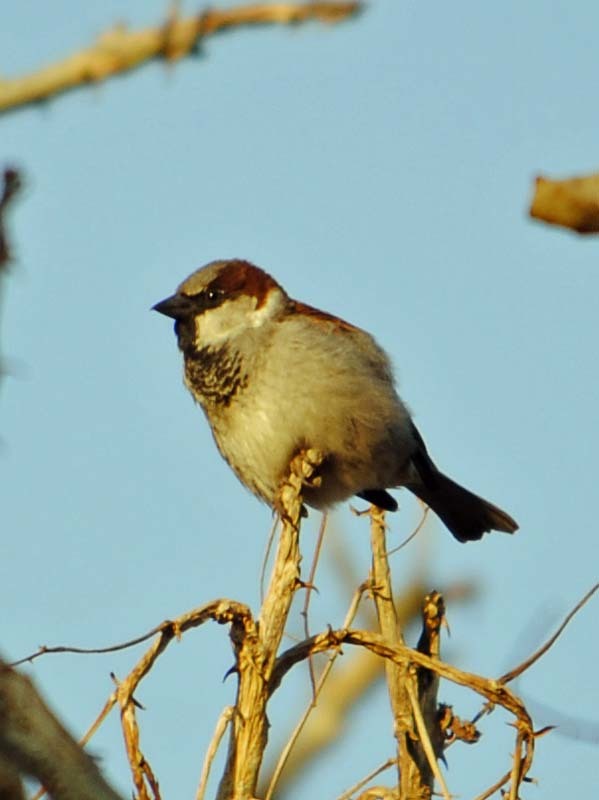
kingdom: Animalia
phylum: Chordata
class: Aves
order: Passeriformes
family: Passeridae
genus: Passer
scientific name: Passer domesticus
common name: House sparrow
